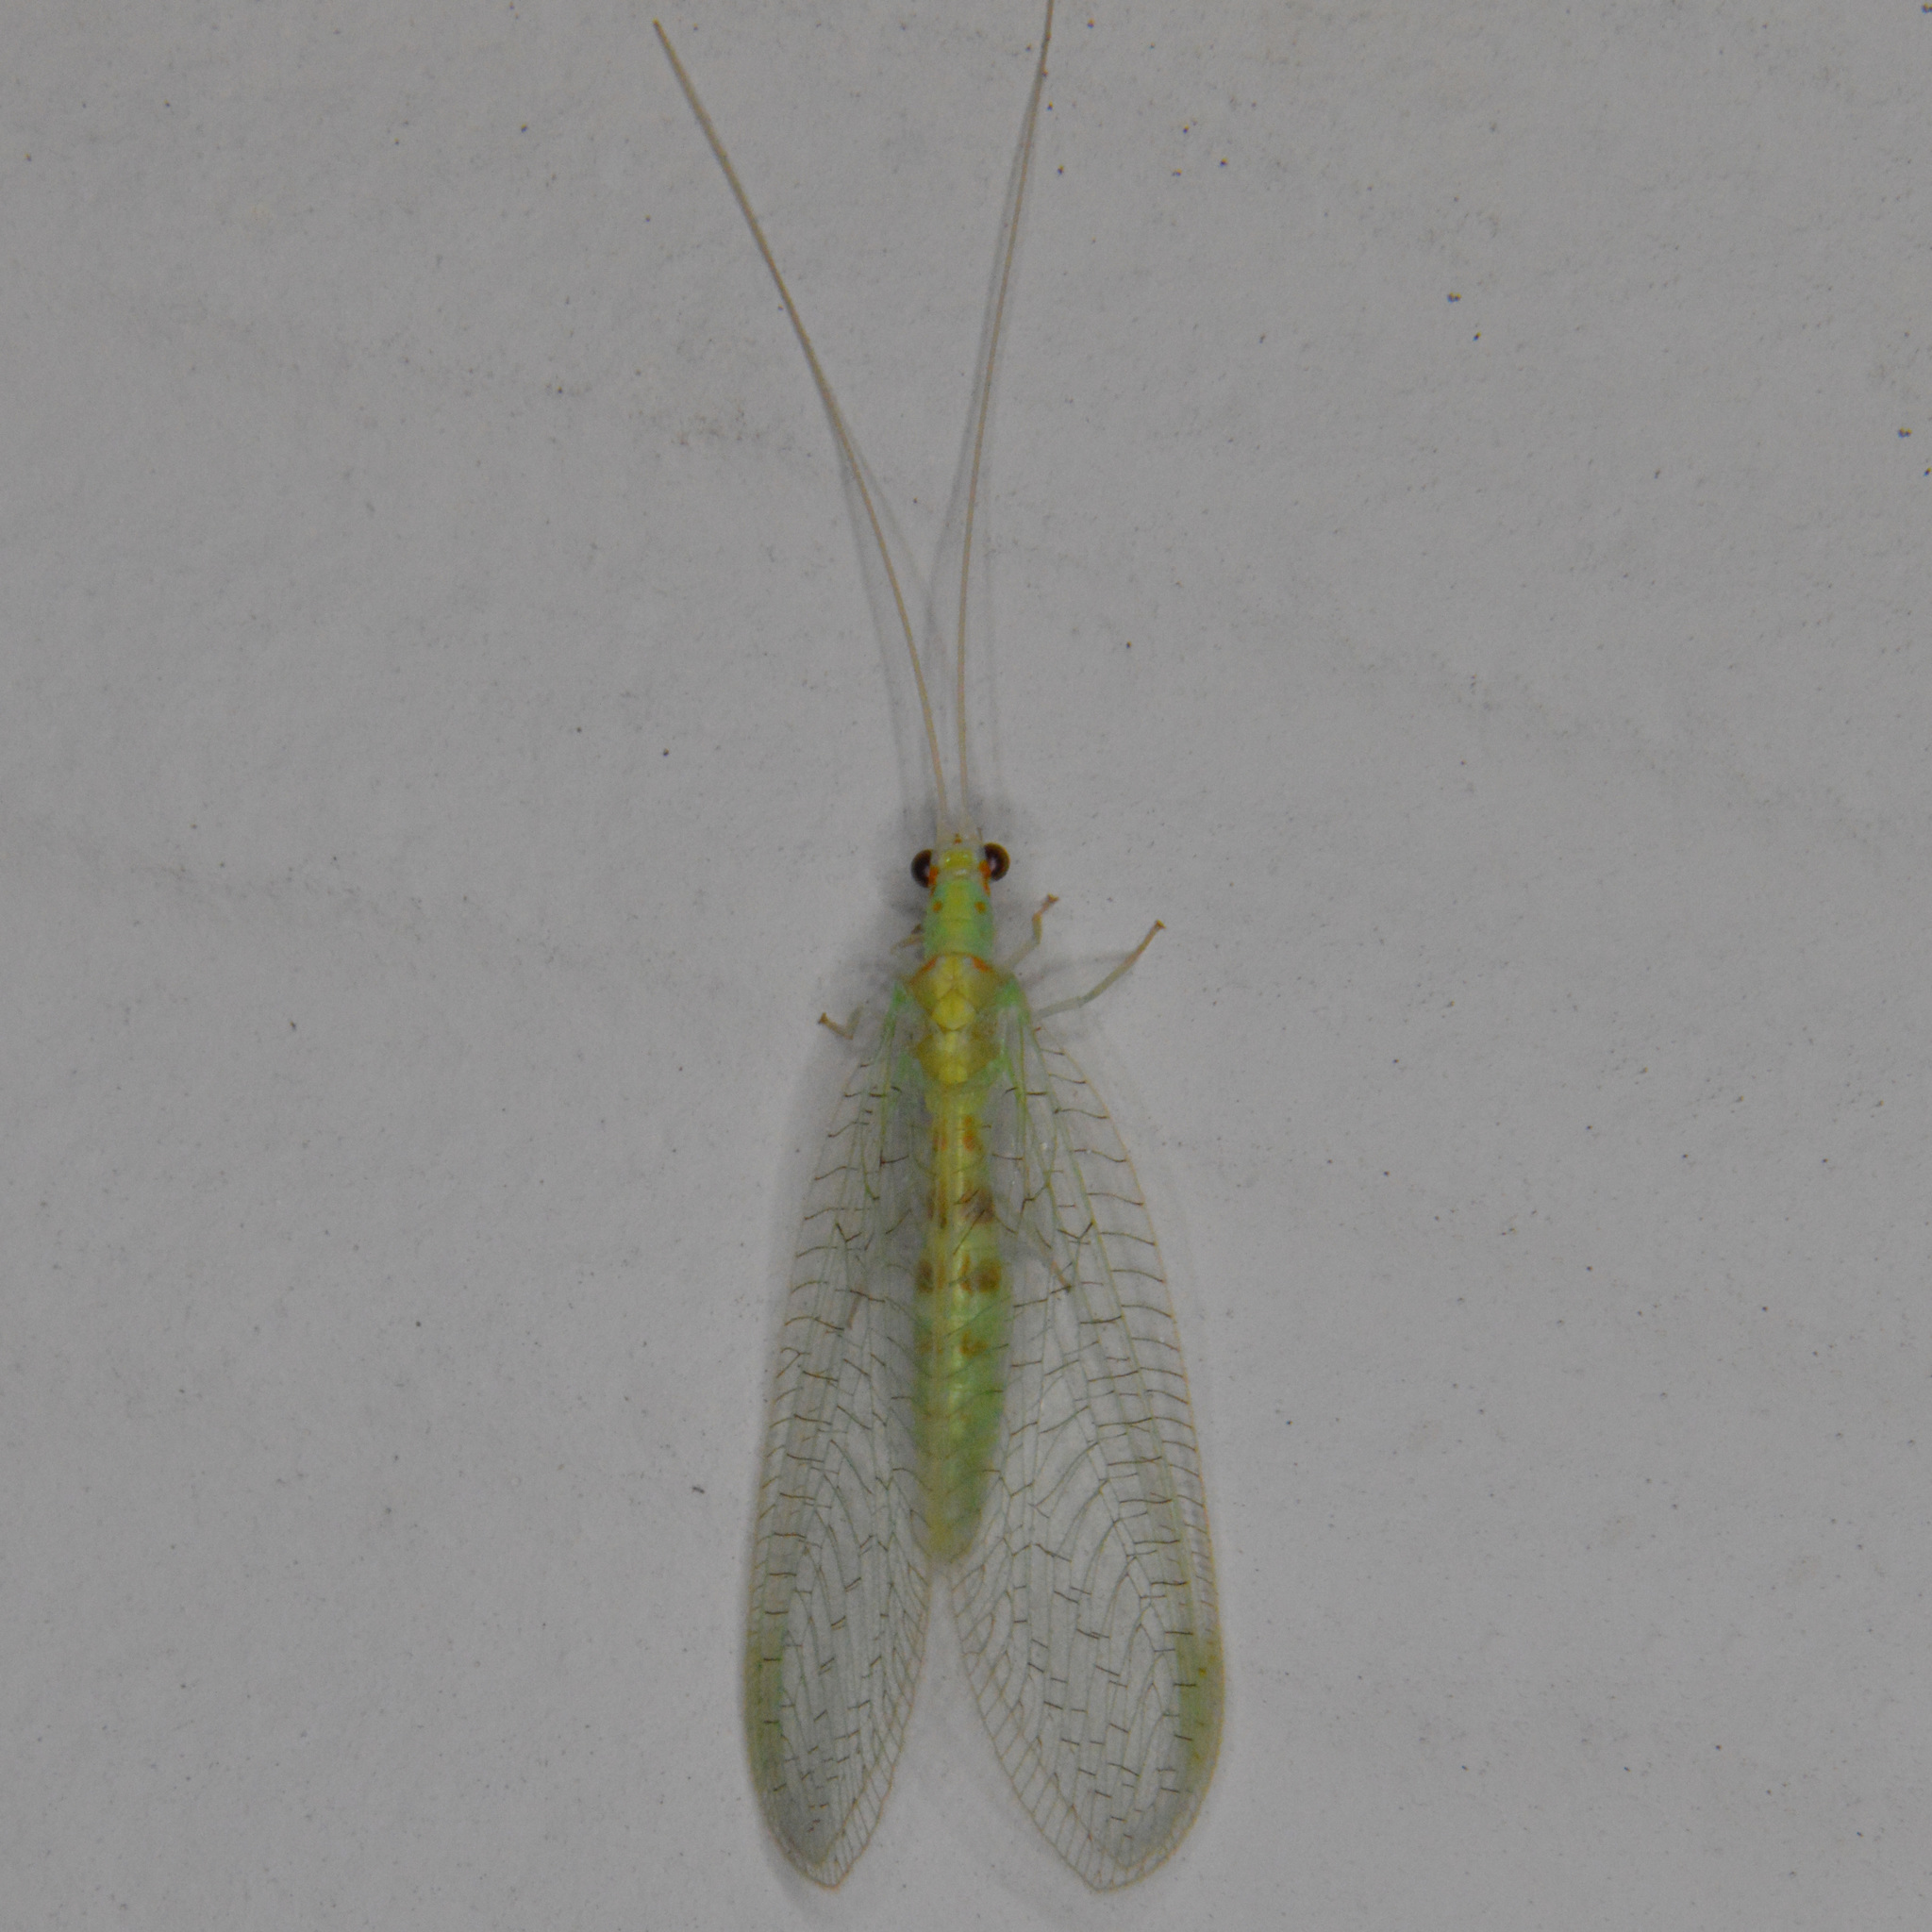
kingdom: Animalia
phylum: Arthropoda
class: Insecta
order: Neuroptera
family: Chrysopidae
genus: Chrysopa
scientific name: Chrysopa quadripunctata
